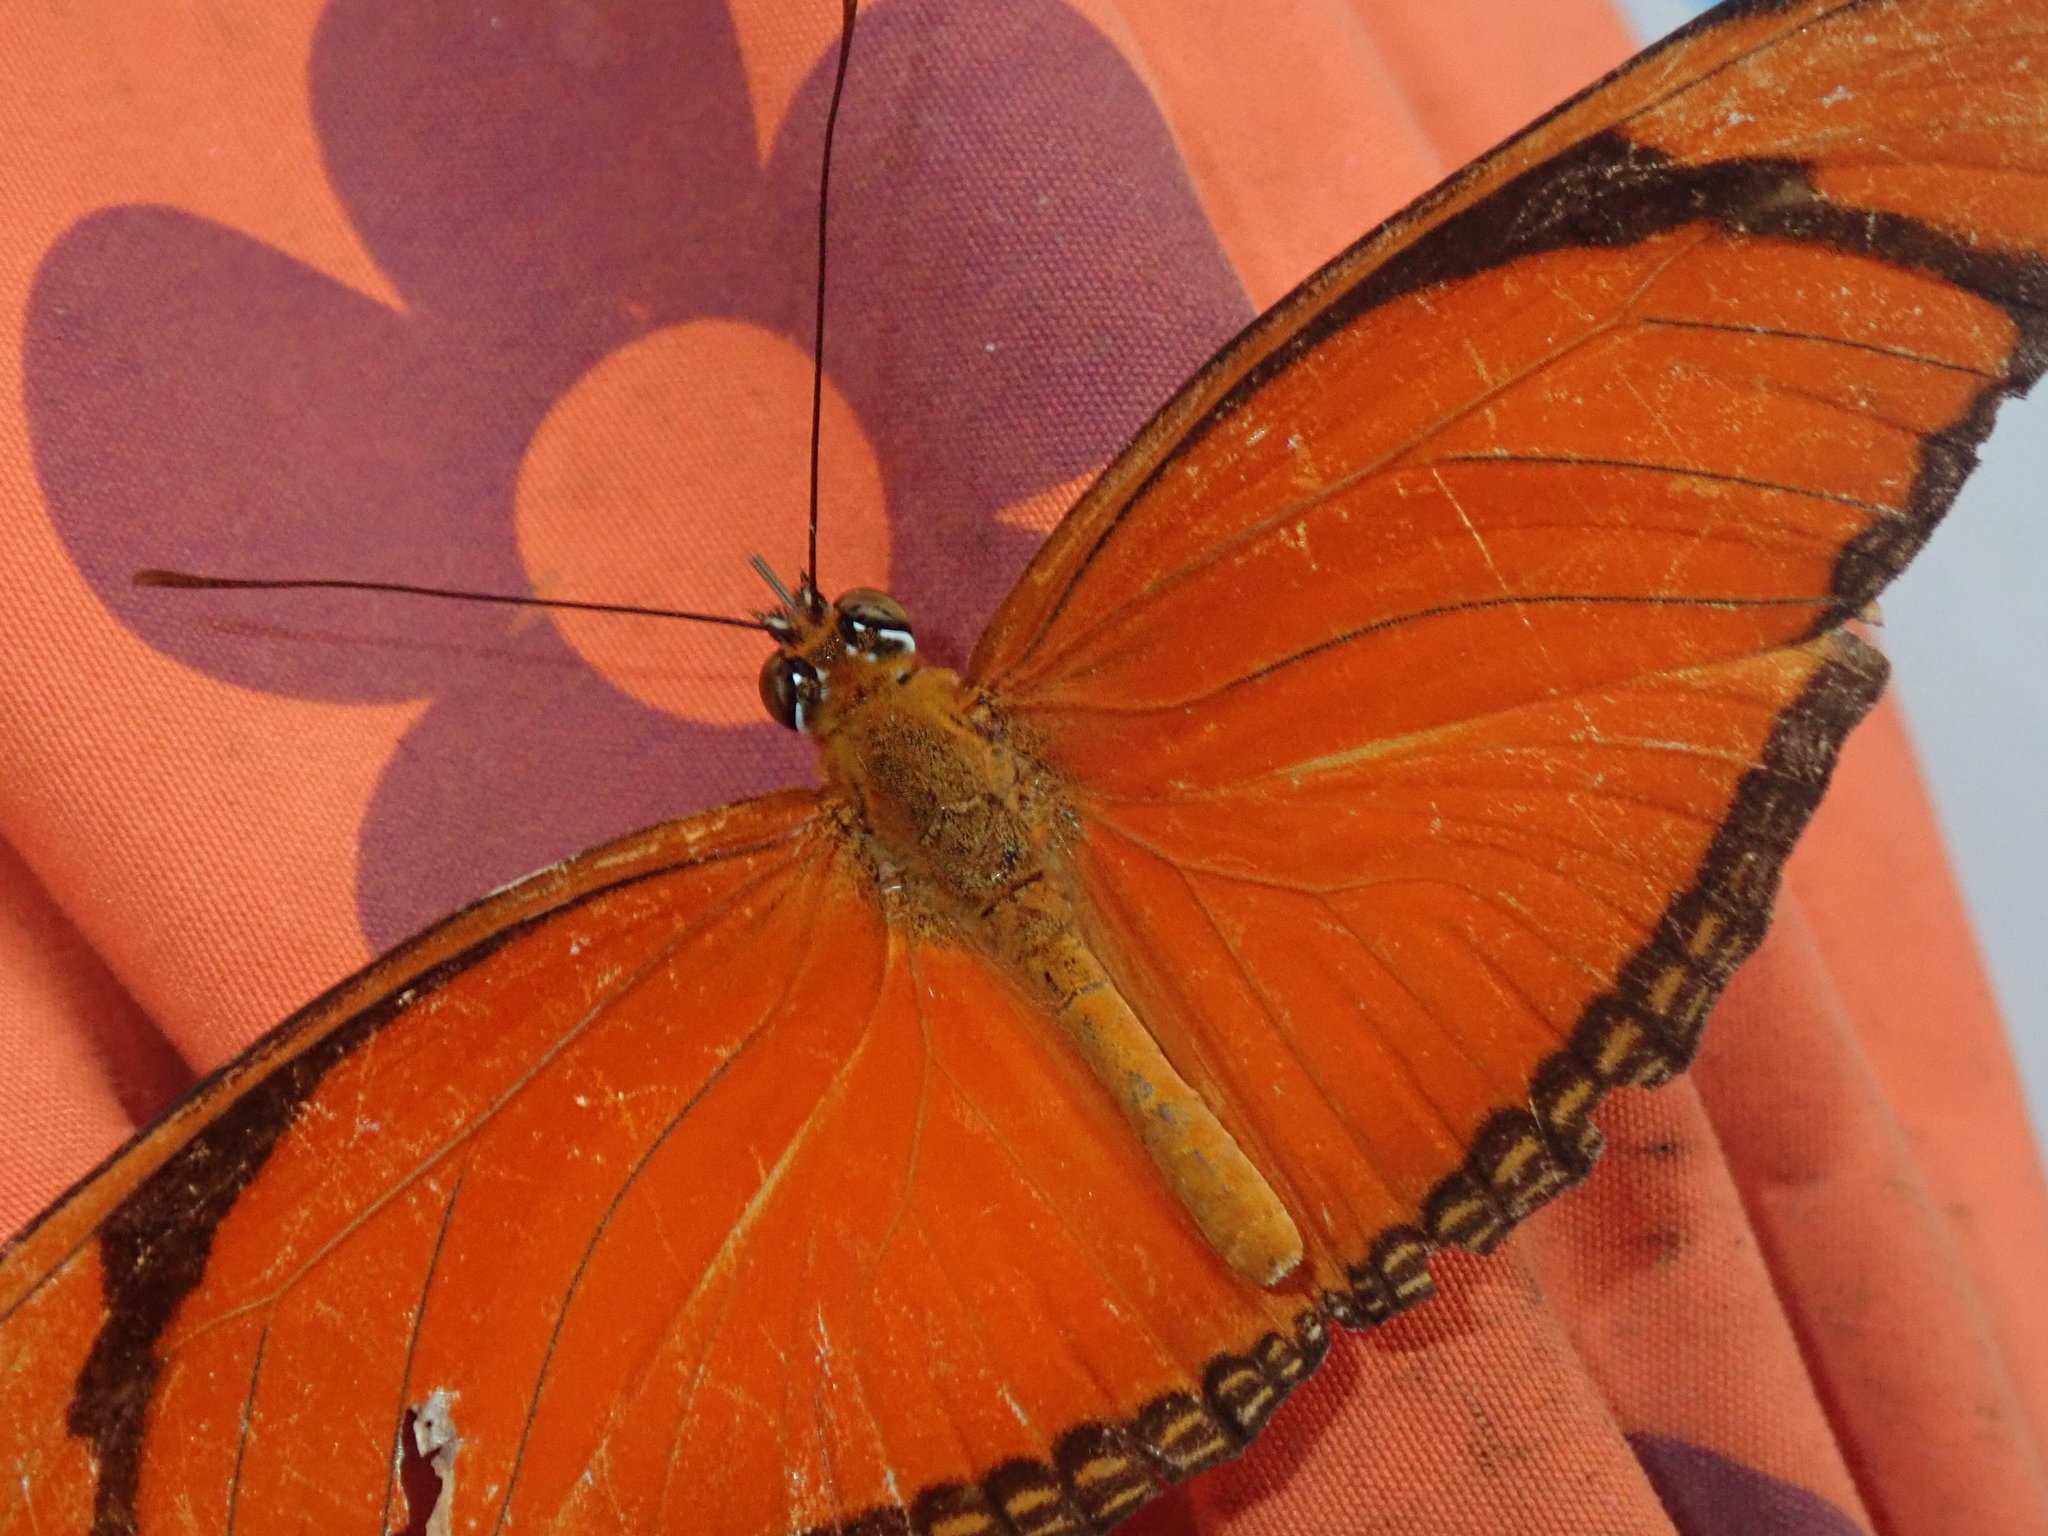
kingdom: Animalia
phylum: Arthropoda
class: Insecta
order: Lepidoptera
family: Nymphalidae
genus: Dryas
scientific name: Dryas iulia
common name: Flambeau
